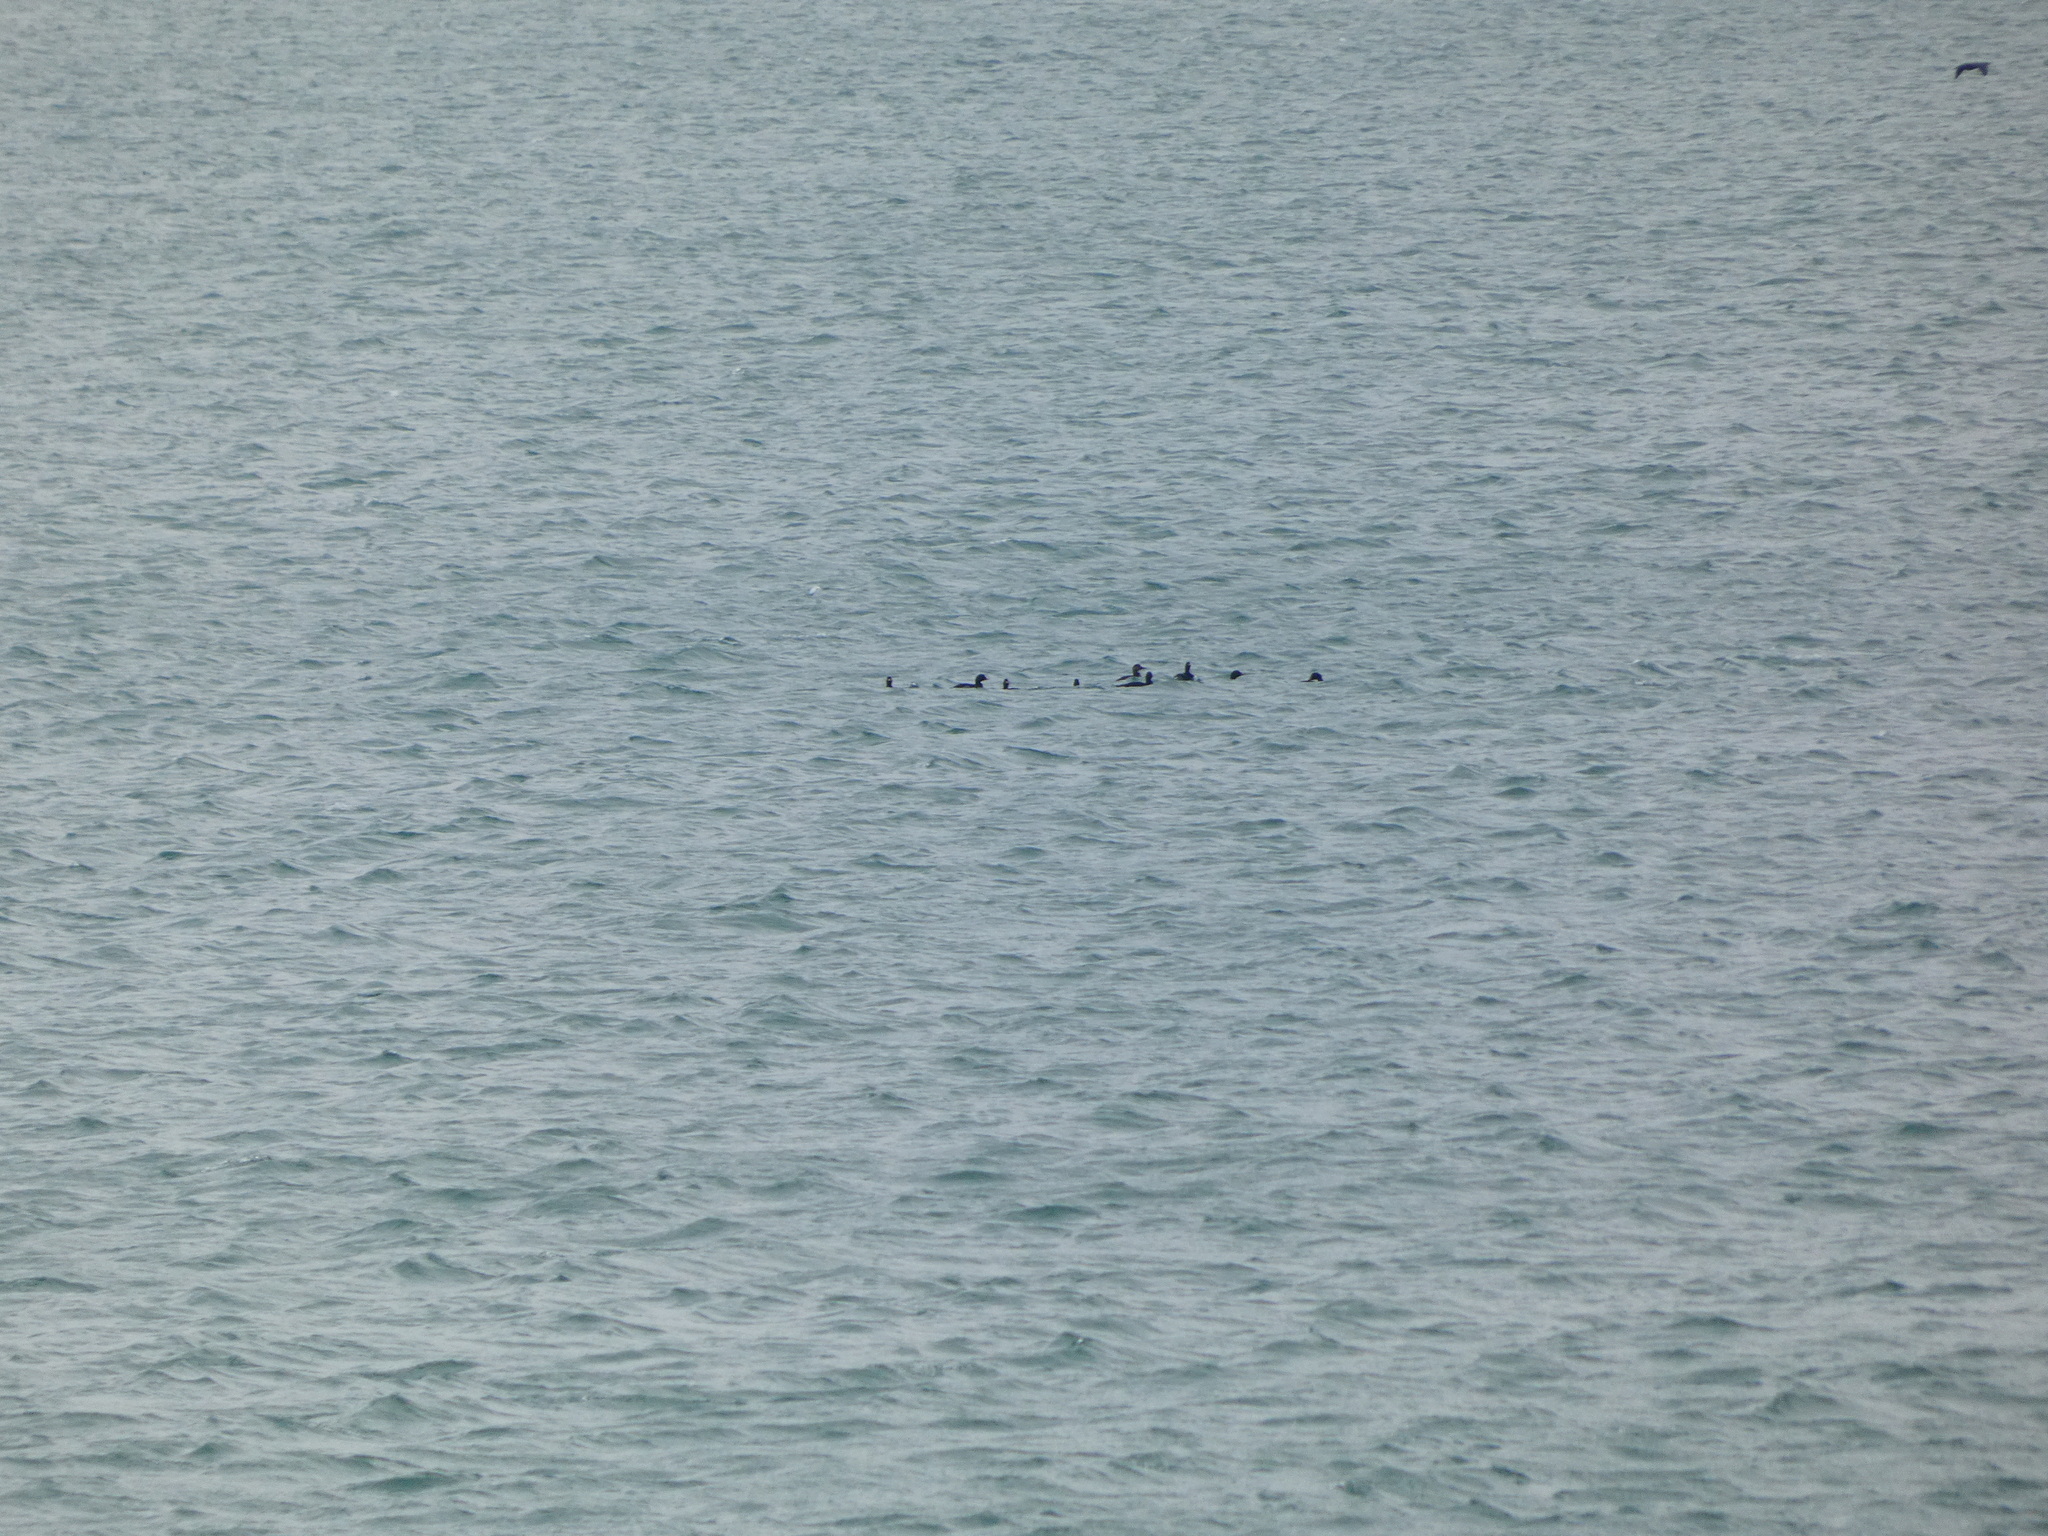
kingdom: Animalia
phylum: Chordata
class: Aves
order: Anseriformes
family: Anatidae
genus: Melanitta
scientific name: Melanitta nigra
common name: Common scoter
